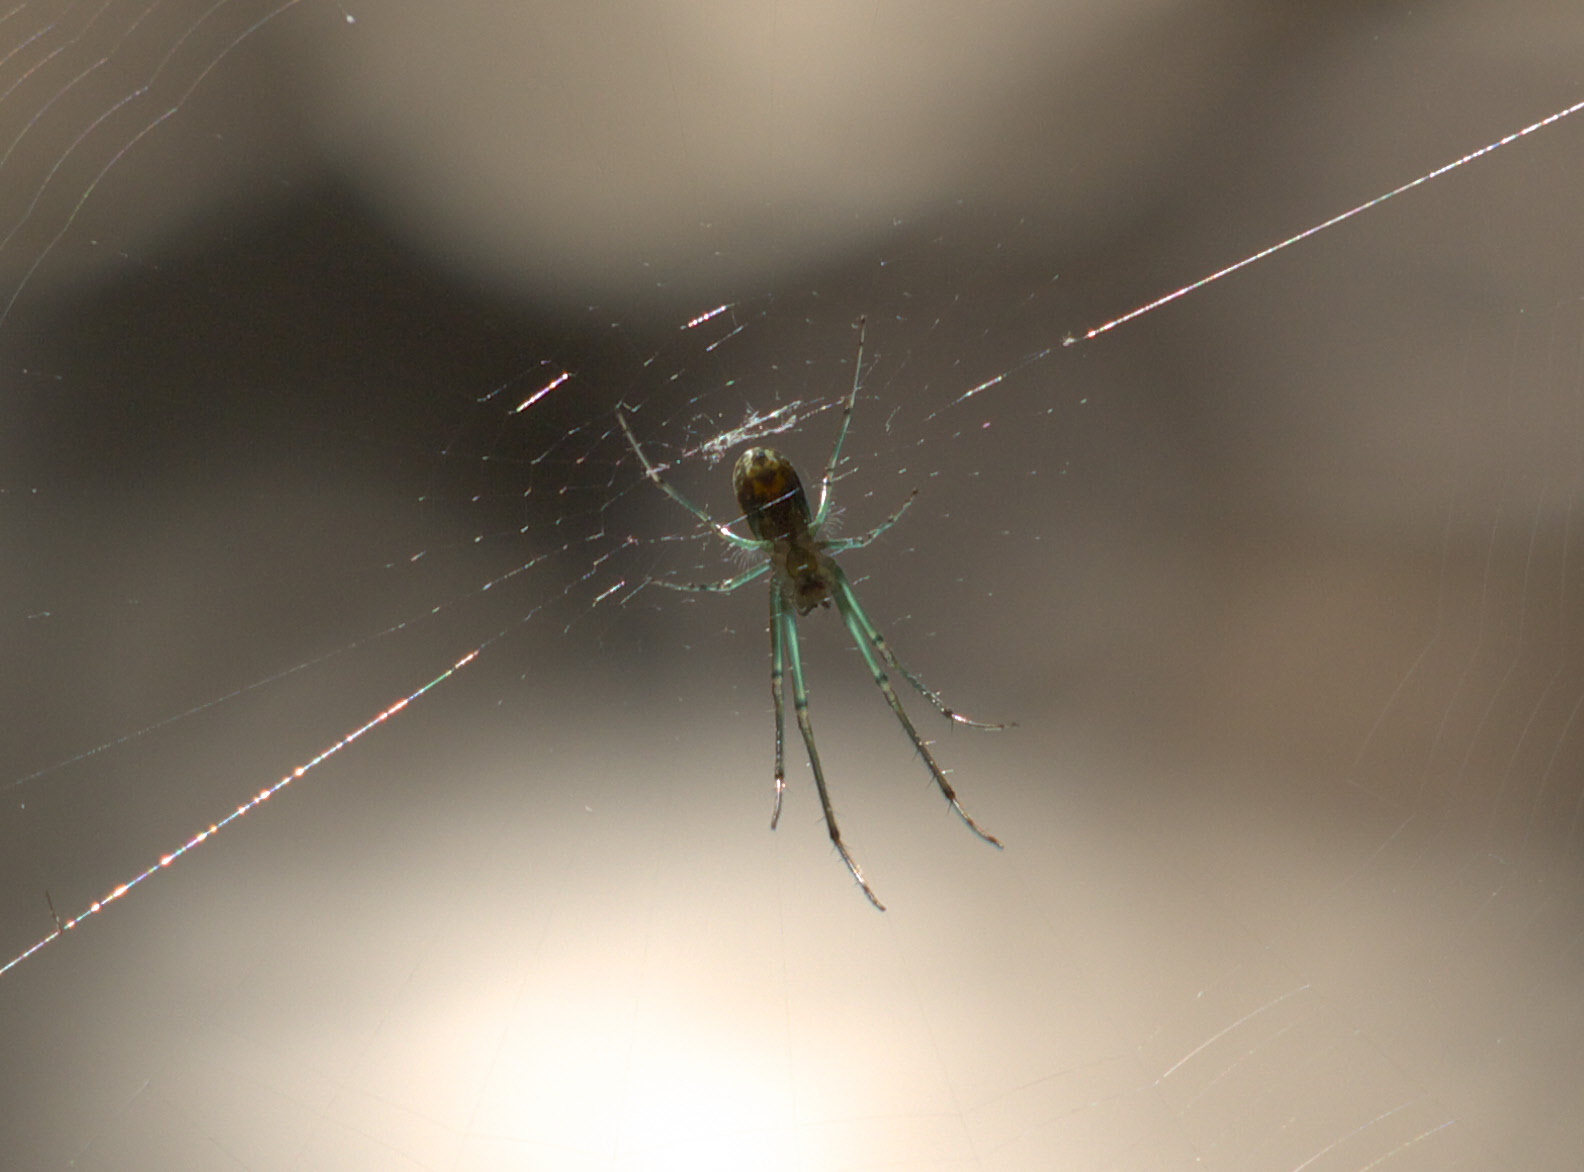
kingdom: Animalia
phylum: Arthropoda
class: Arachnida
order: Araneae
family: Tetragnathidae
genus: Leucauge
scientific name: Leucauge venusta
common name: Longjawed orb weavers
